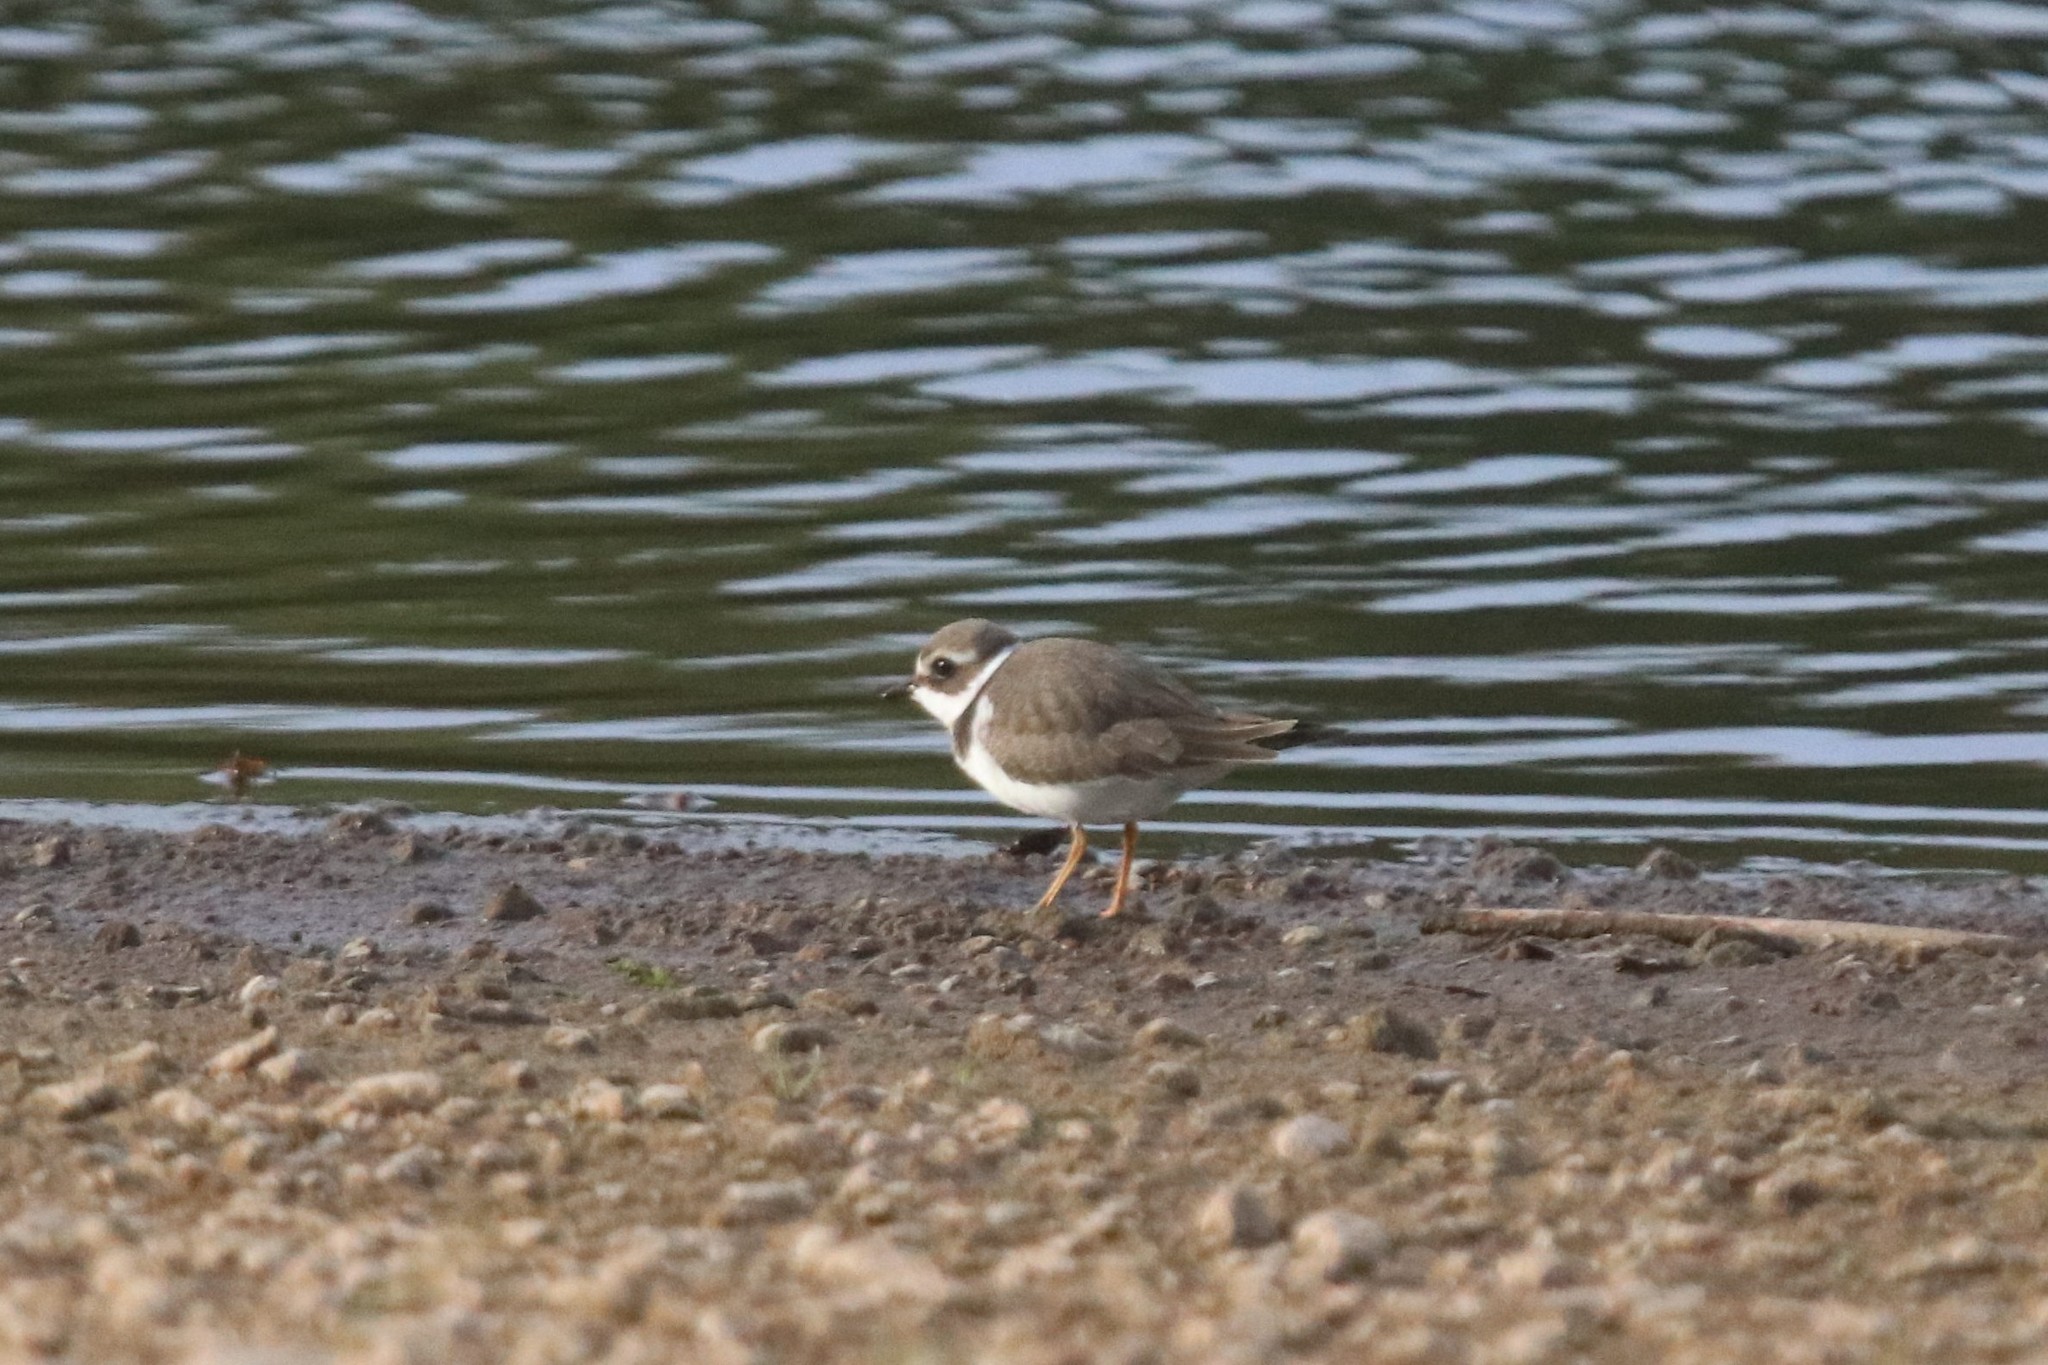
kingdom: Animalia
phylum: Chordata
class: Aves
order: Charadriiformes
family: Charadriidae
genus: Charadrius
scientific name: Charadrius hiaticula
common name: Common ringed plover
